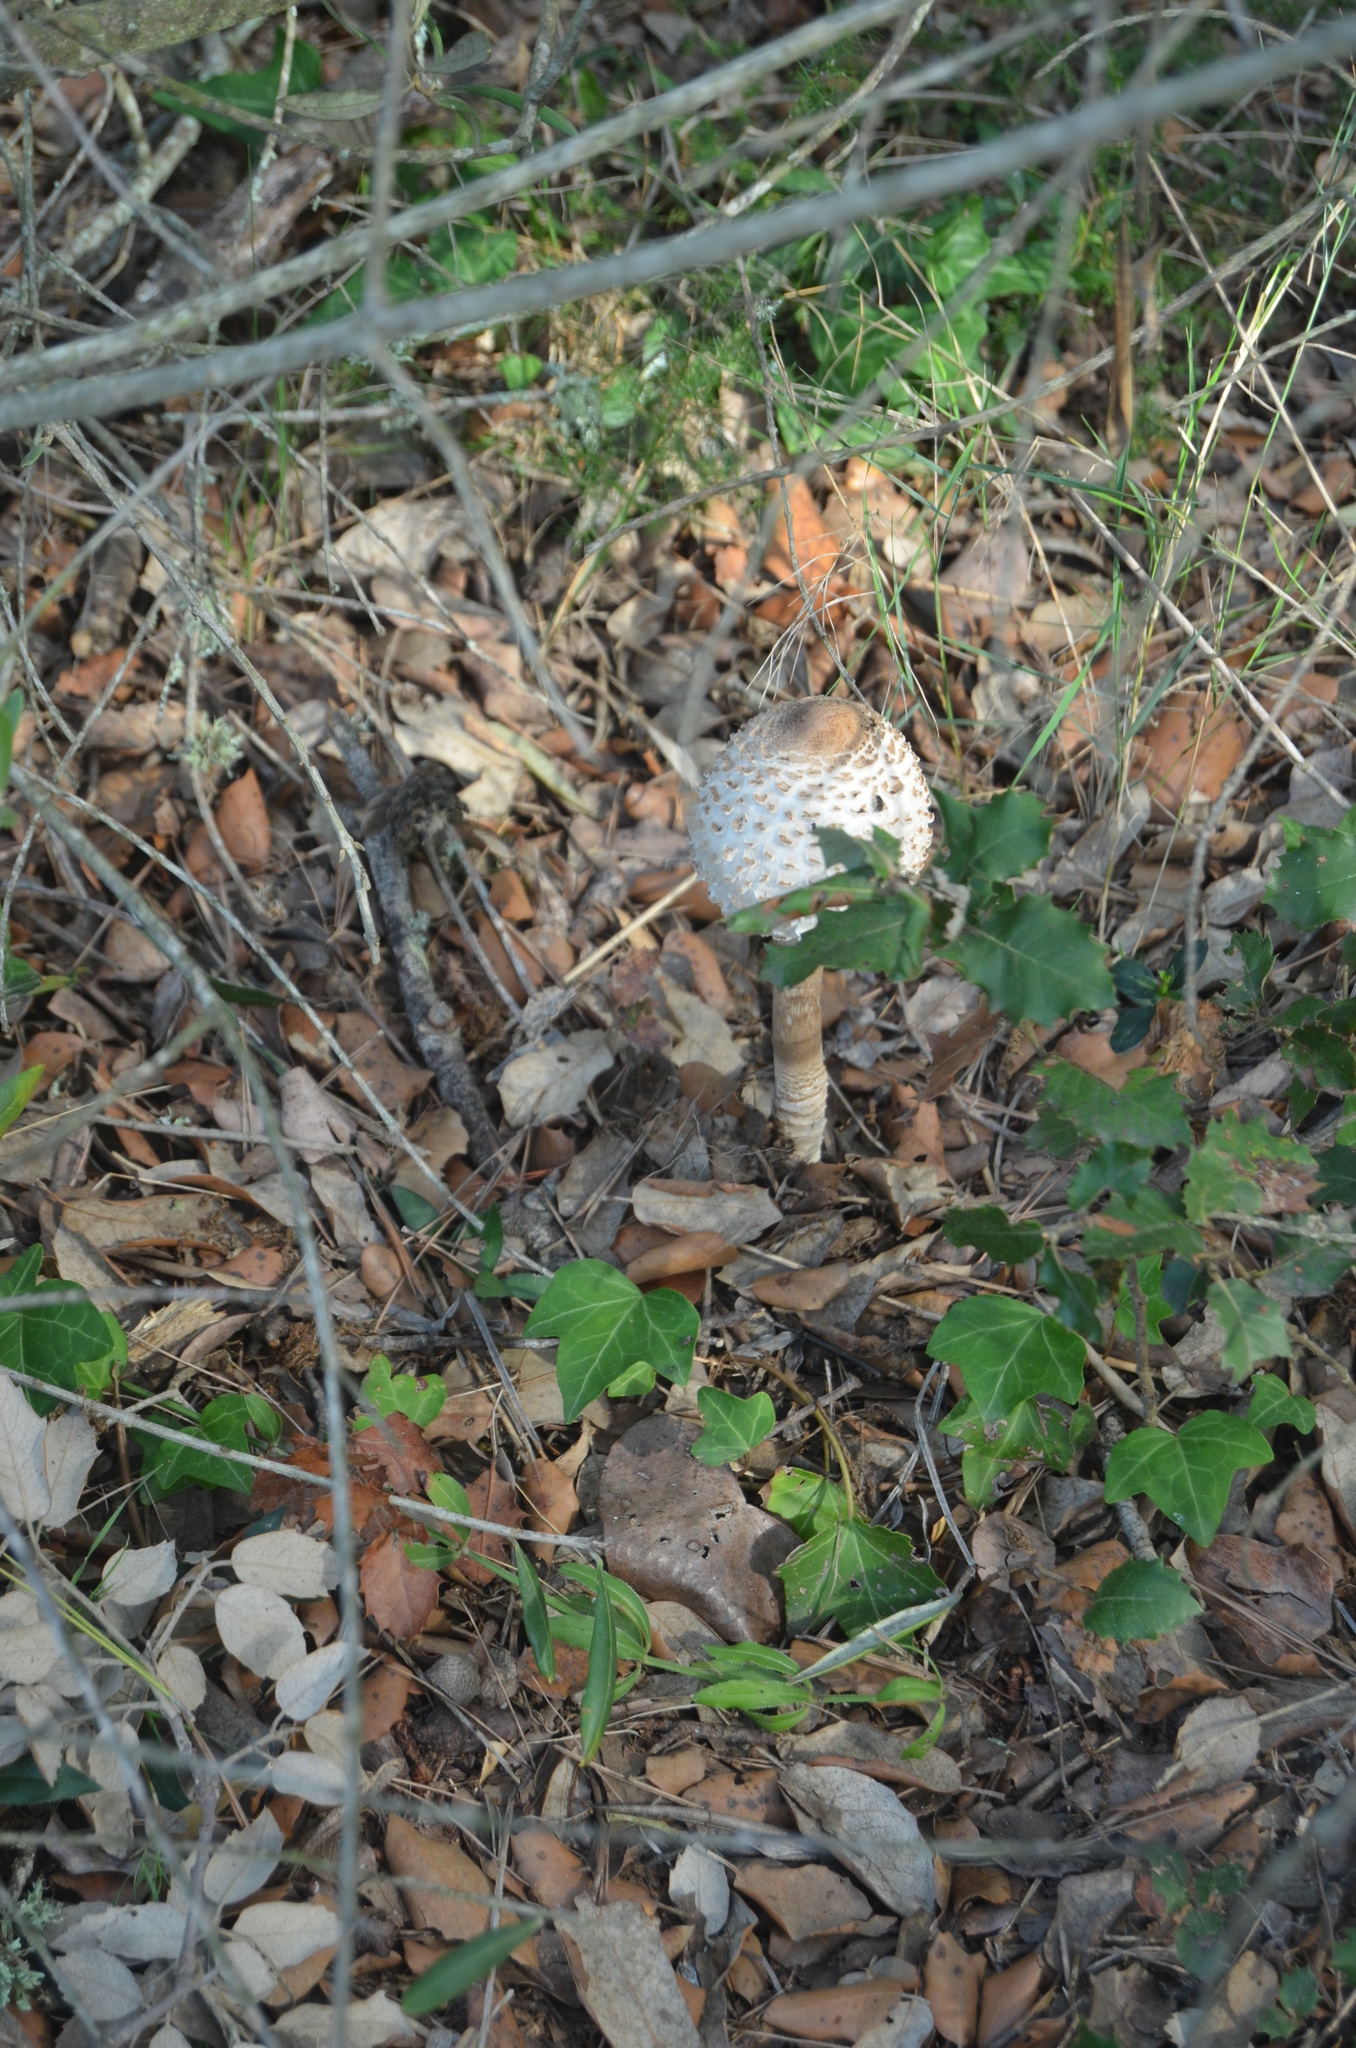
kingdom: Fungi
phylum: Basidiomycota
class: Agaricomycetes
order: Agaricales
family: Agaricaceae
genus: Macrolepiota
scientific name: Macrolepiota procera
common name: Parasol
